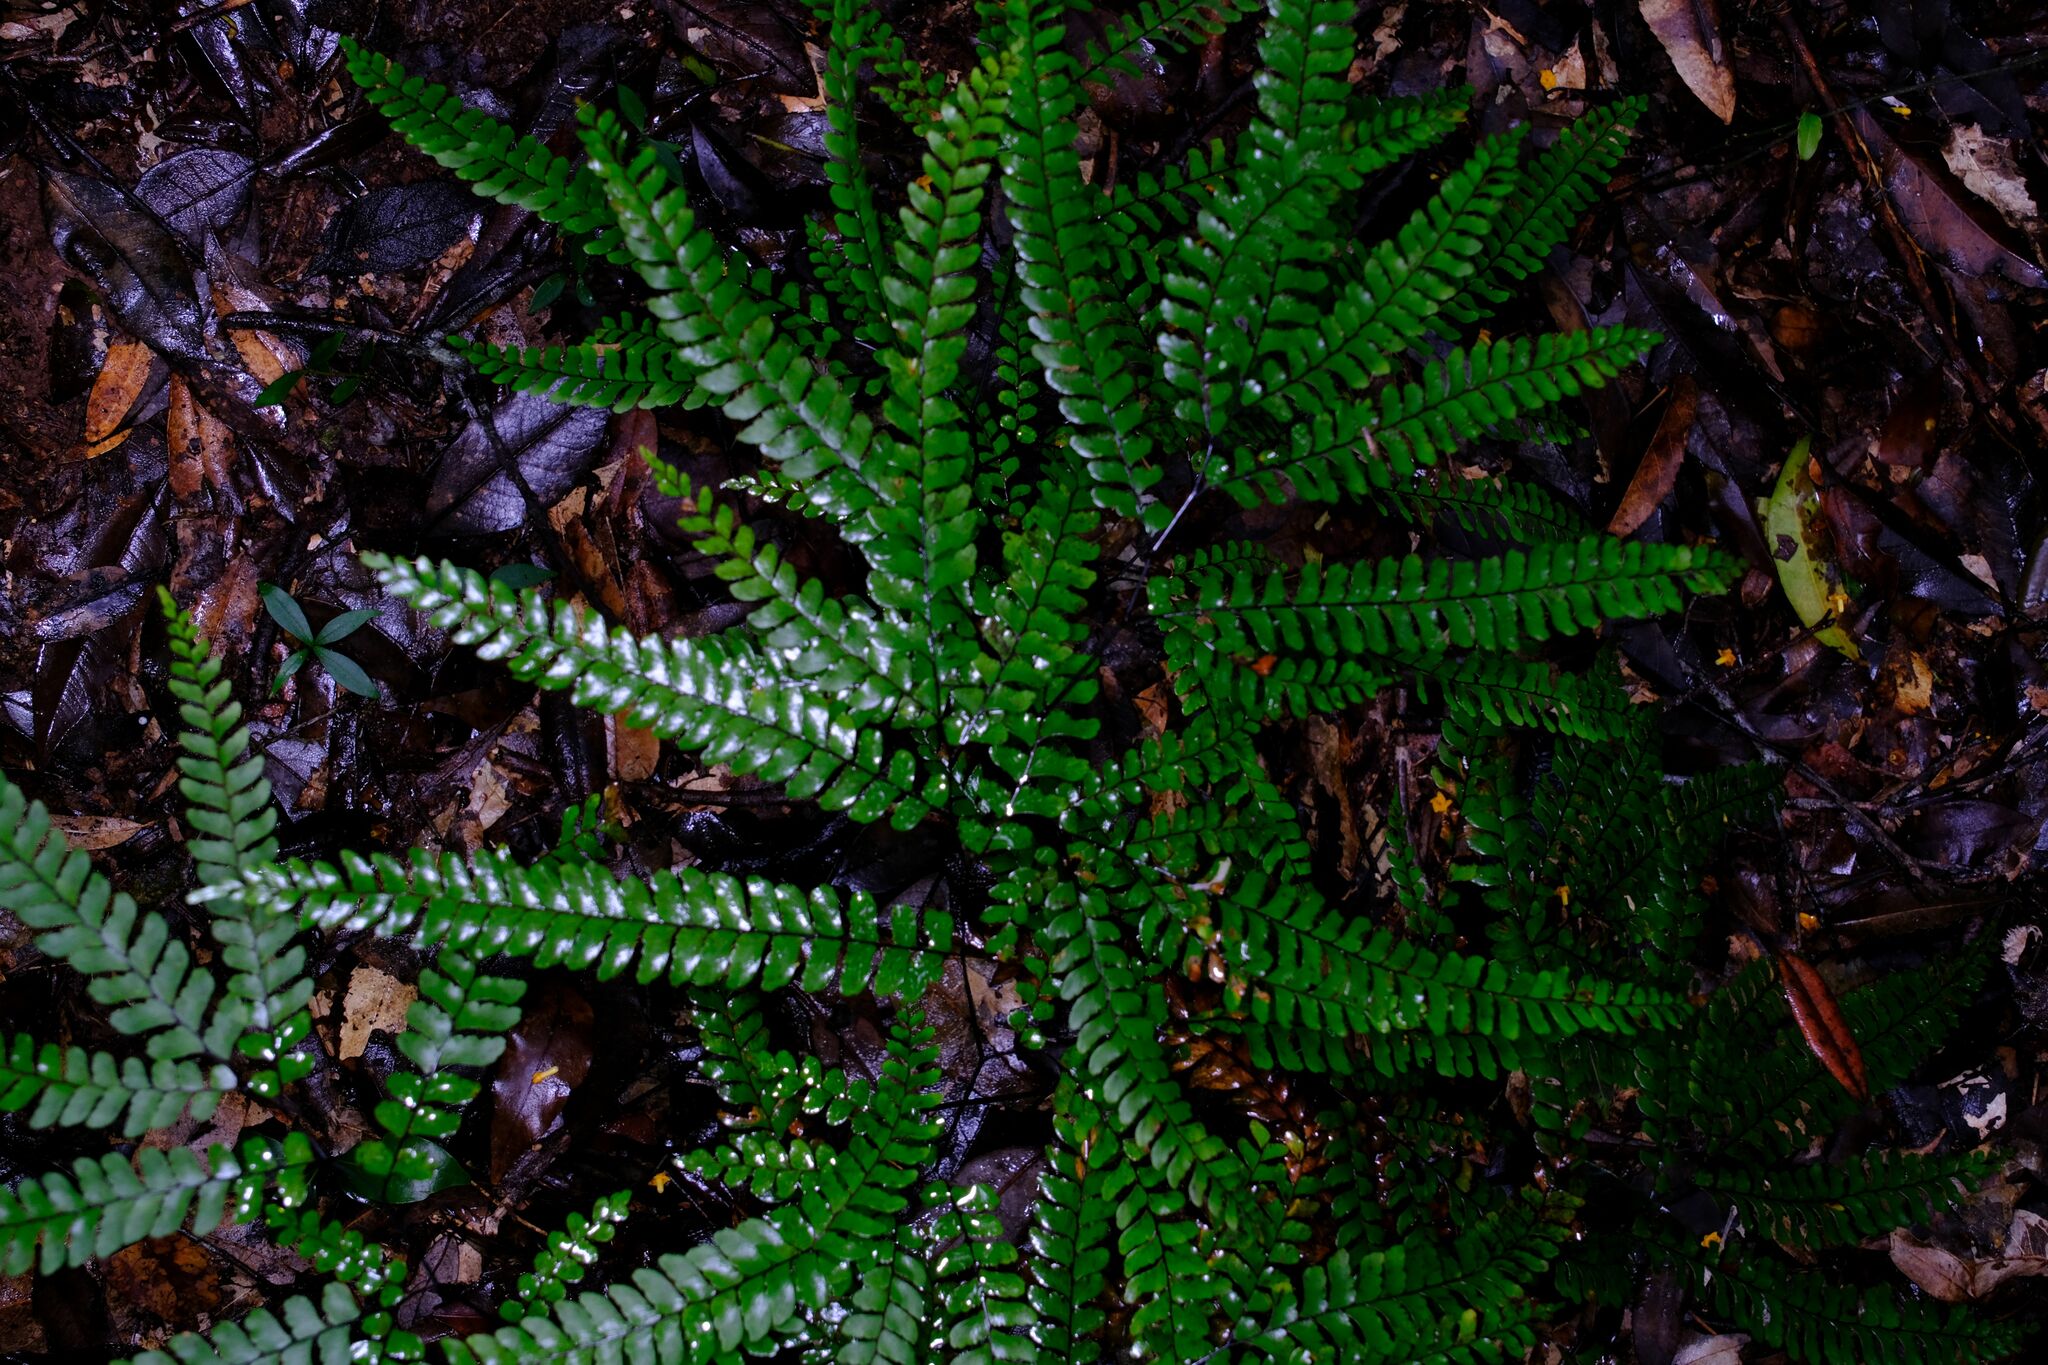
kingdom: Plantae
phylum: Tracheophyta
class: Polypodiopsida
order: Polypodiales
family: Pteridaceae
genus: Adiantum
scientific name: Adiantum silvaticum
